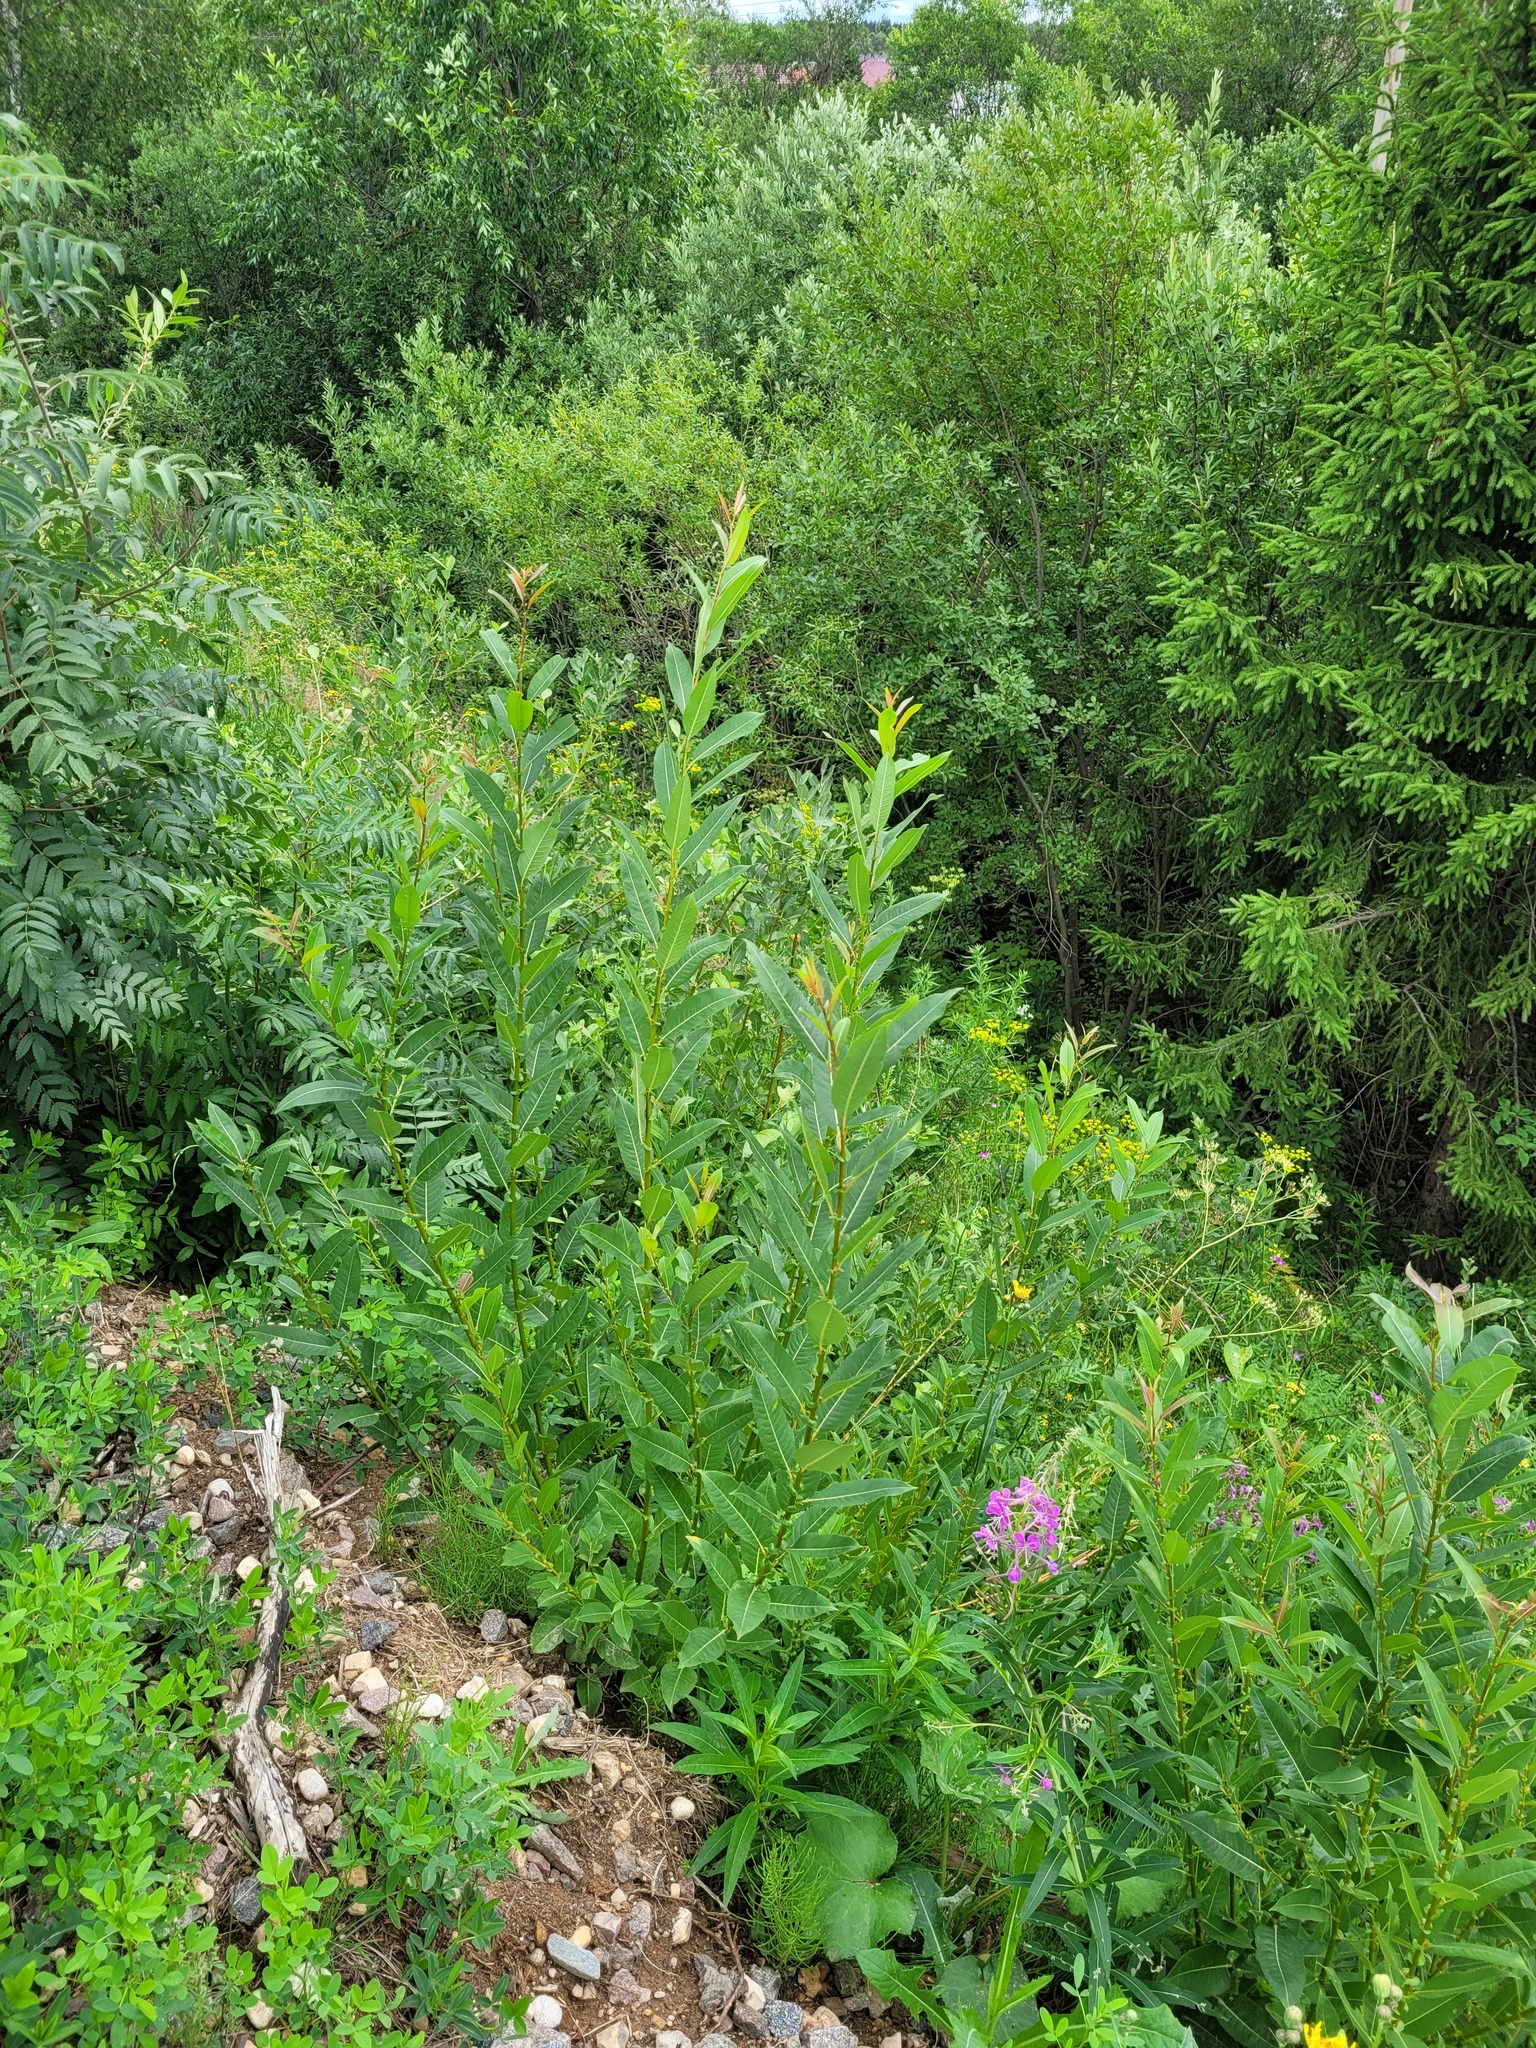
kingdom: Plantae
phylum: Tracheophyta
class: Magnoliopsida
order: Malpighiales
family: Salicaceae
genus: Salix
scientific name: Salix triandra
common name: Almond willow
